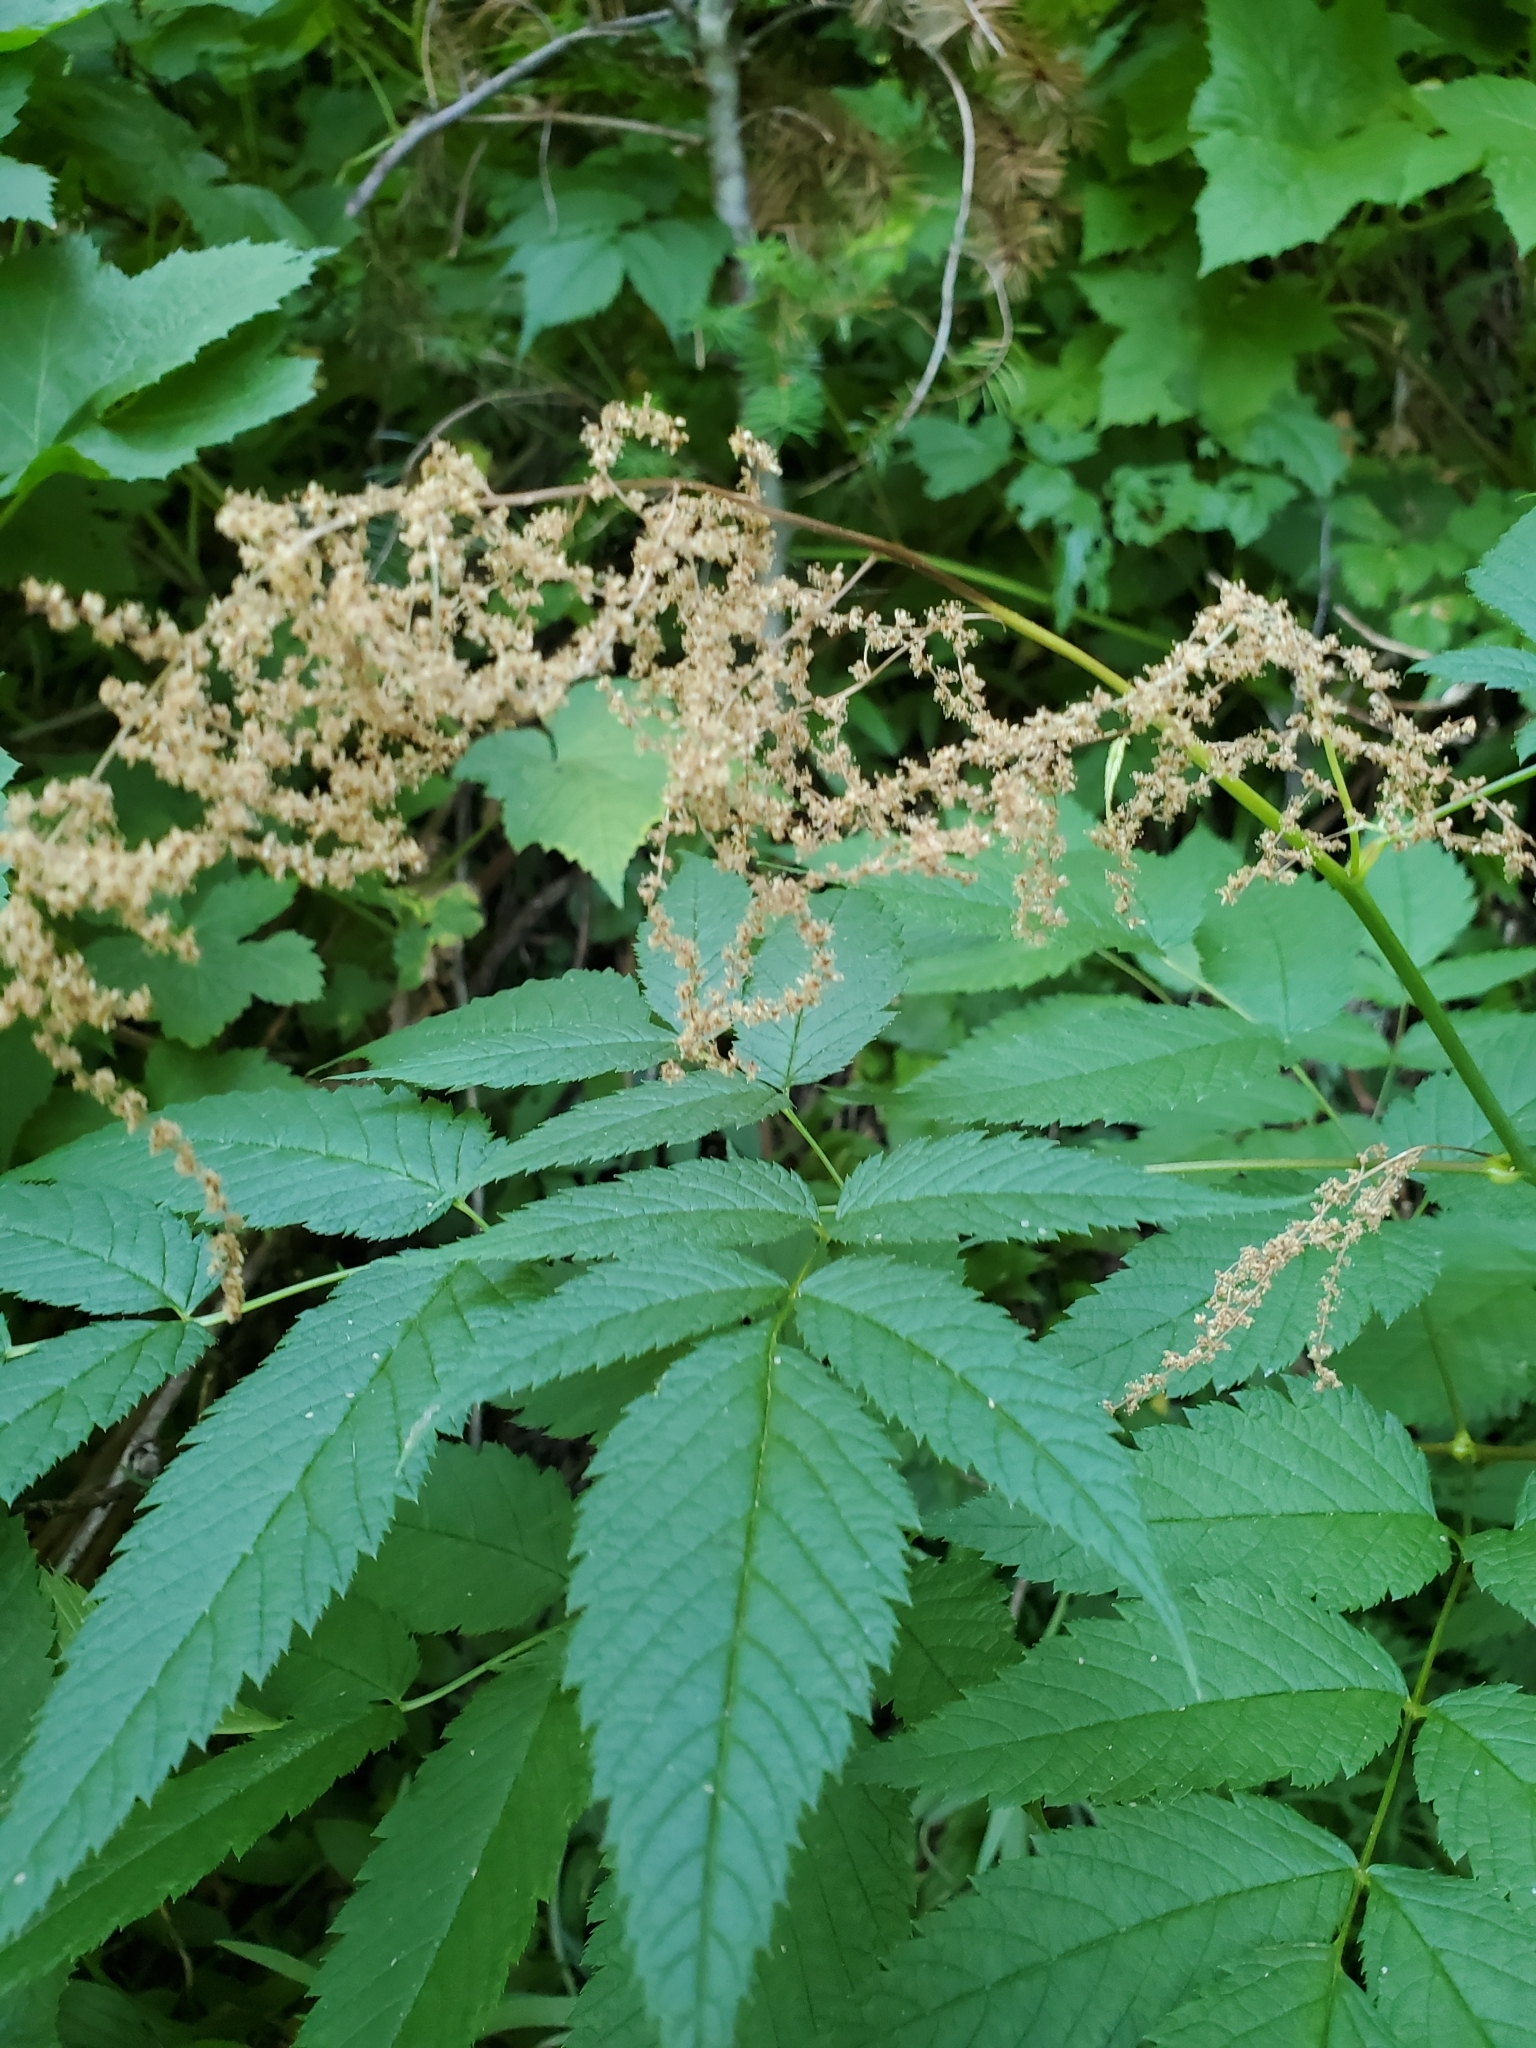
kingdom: Plantae
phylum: Tracheophyta
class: Magnoliopsida
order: Rosales
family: Rosaceae
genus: Aruncus
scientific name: Aruncus dioicus
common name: Buck's-beard
